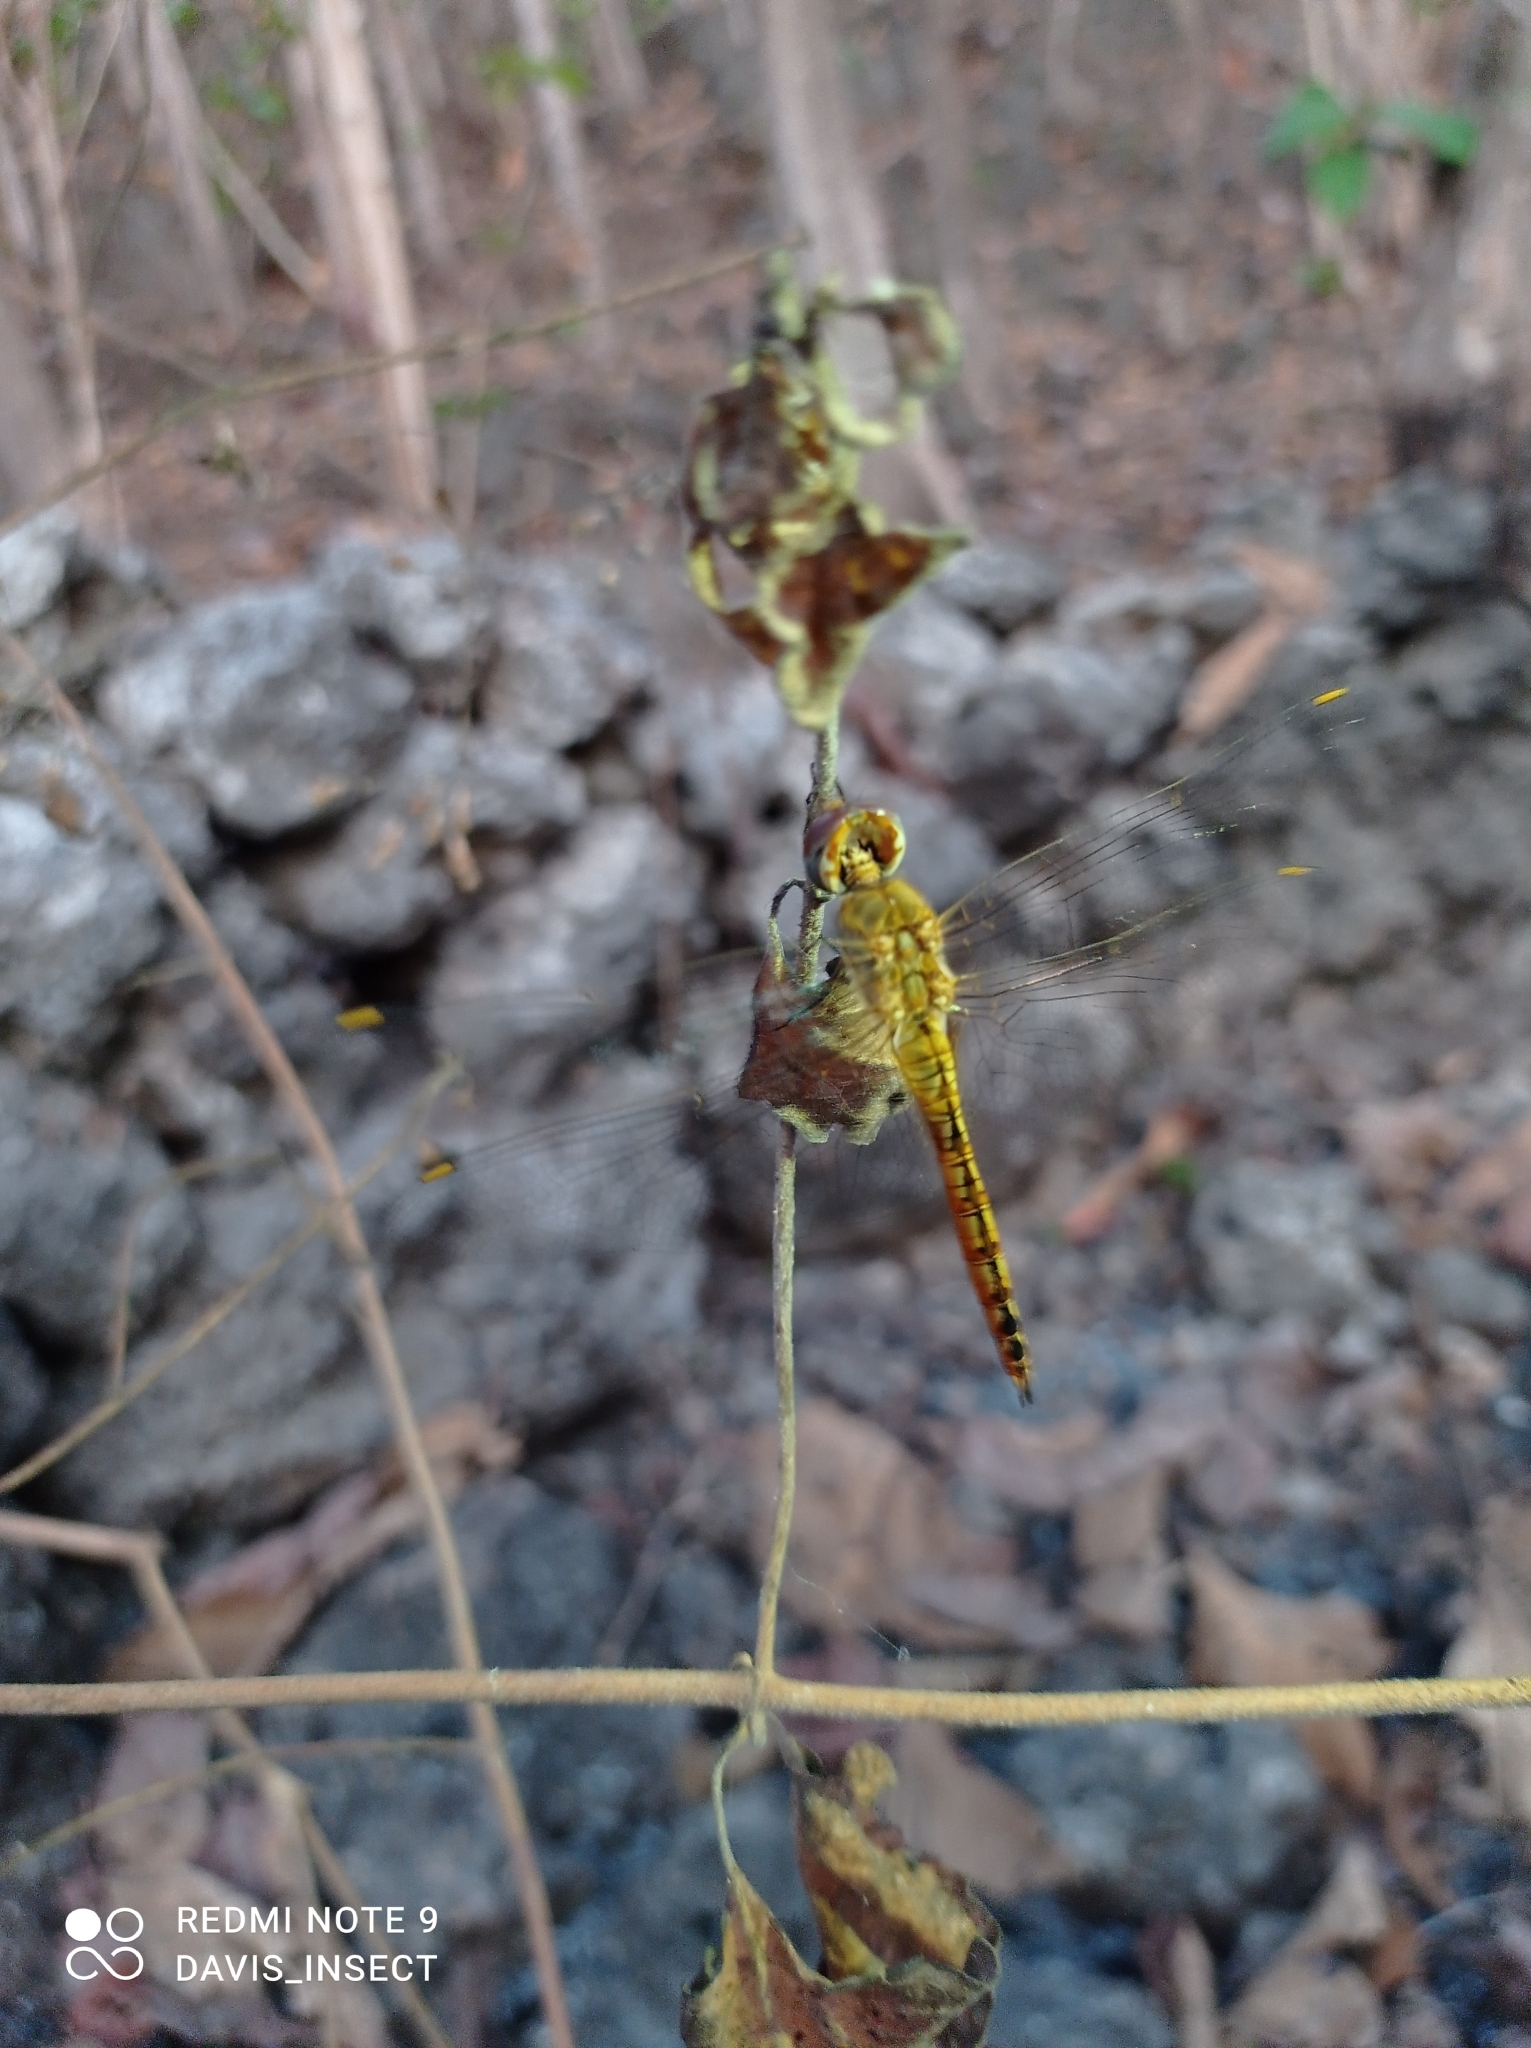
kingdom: Animalia
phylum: Arthropoda
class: Insecta
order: Odonata
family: Libellulidae
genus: Pantala
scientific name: Pantala flavescens
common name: Wandering glider
